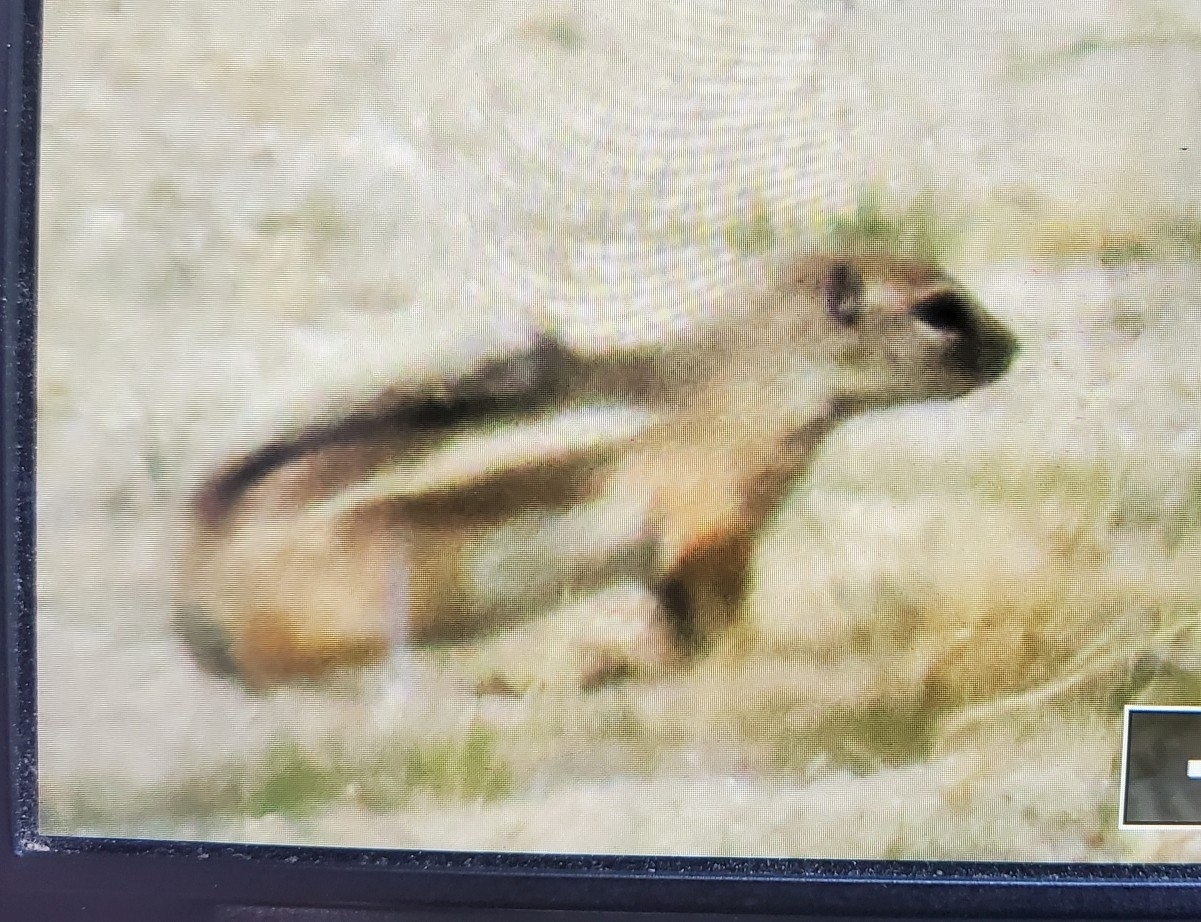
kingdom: Animalia
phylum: Chordata
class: Mammalia
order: Rodentia
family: Sciuridae
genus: Ammospermophilus
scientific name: Ammospermophilus leucurus
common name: White-tailed antelope squirrel
